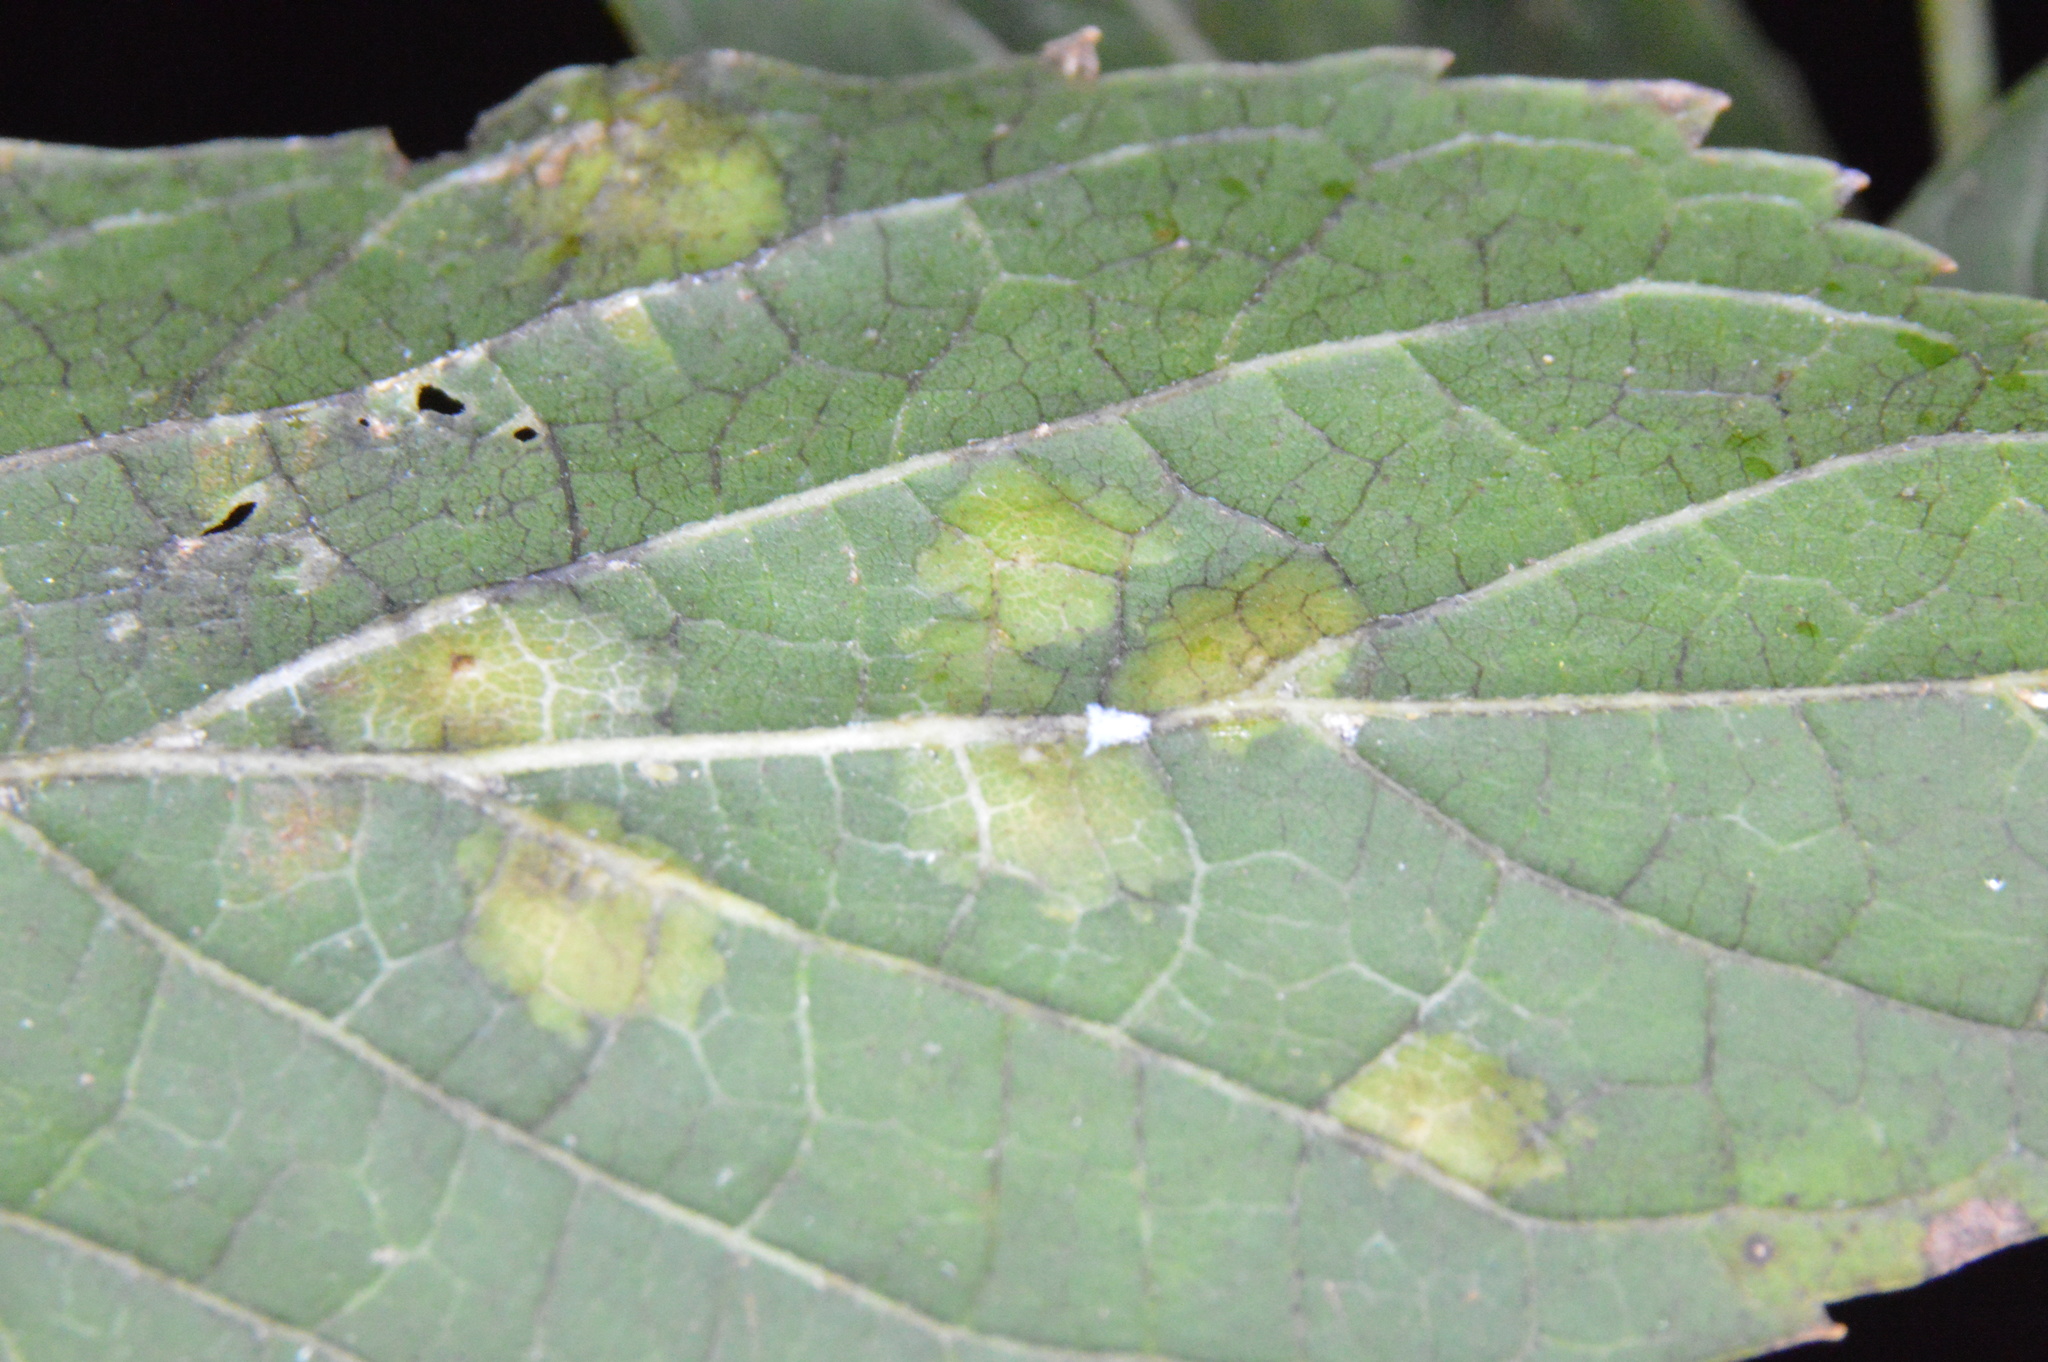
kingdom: Animalia
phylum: Arthropoda
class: Insecta
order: Hemiptera
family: Aphalaridae
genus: Pachypsylla
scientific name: Pachypsylla celtidisvesicula
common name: Hackberry blister gall psyllid
